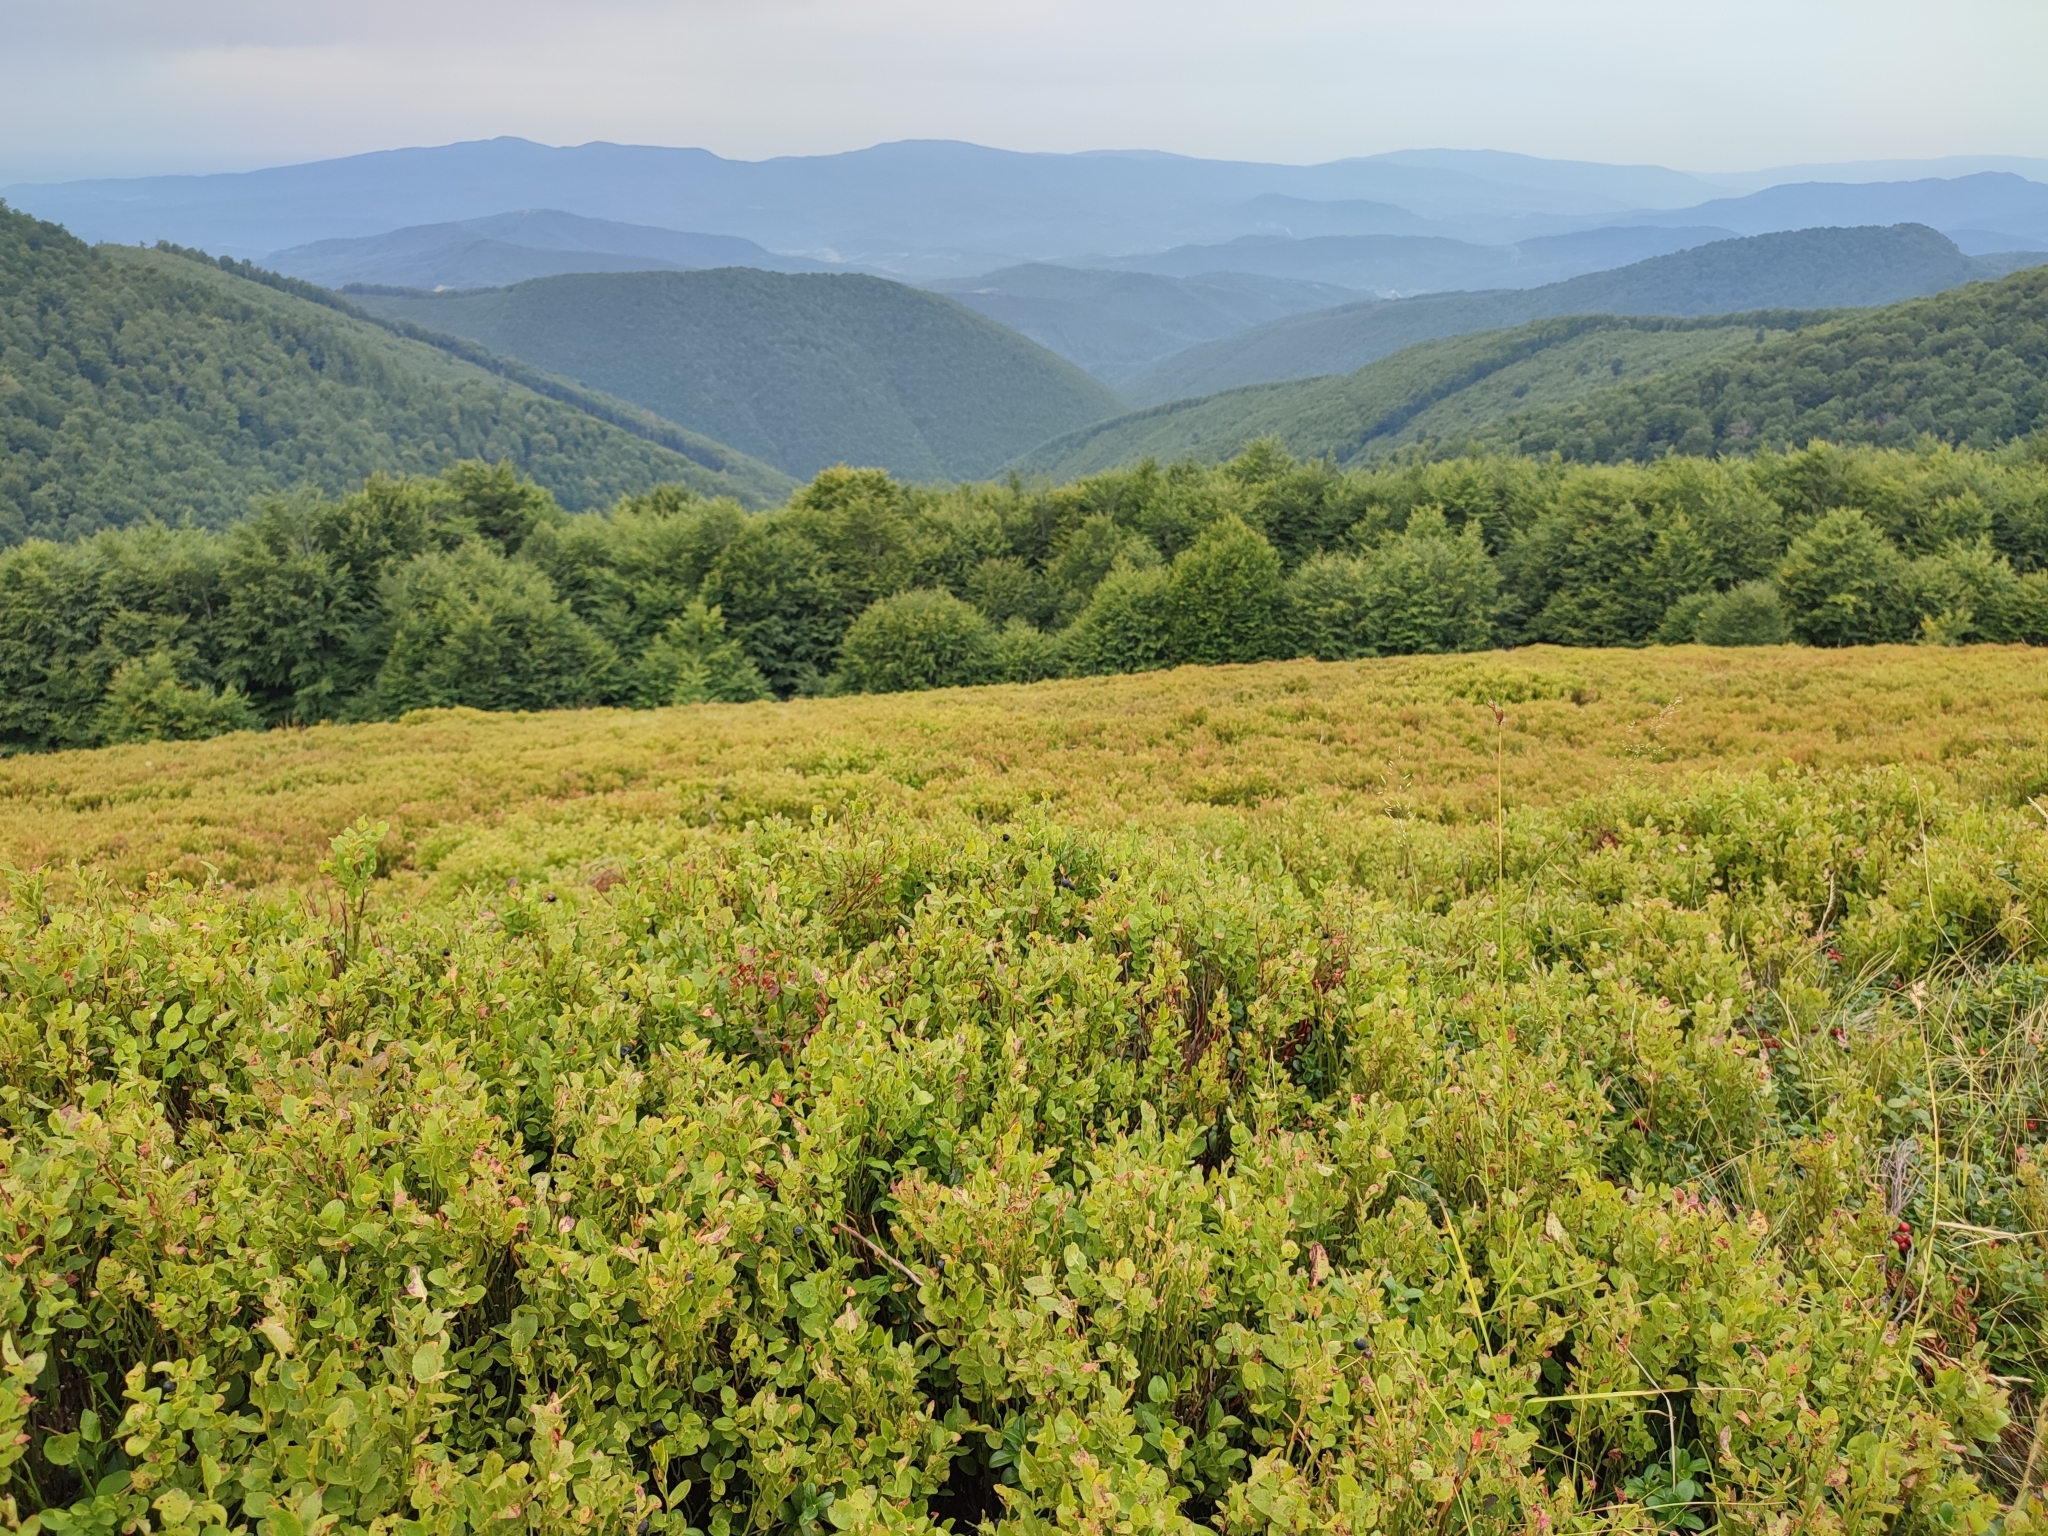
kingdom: Plantae
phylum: Tracheophyta
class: Magnoliopsida
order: Ericales
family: Ericaceae
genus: Vaccinium
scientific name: Vaccinium myrtillus
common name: Bilberry
